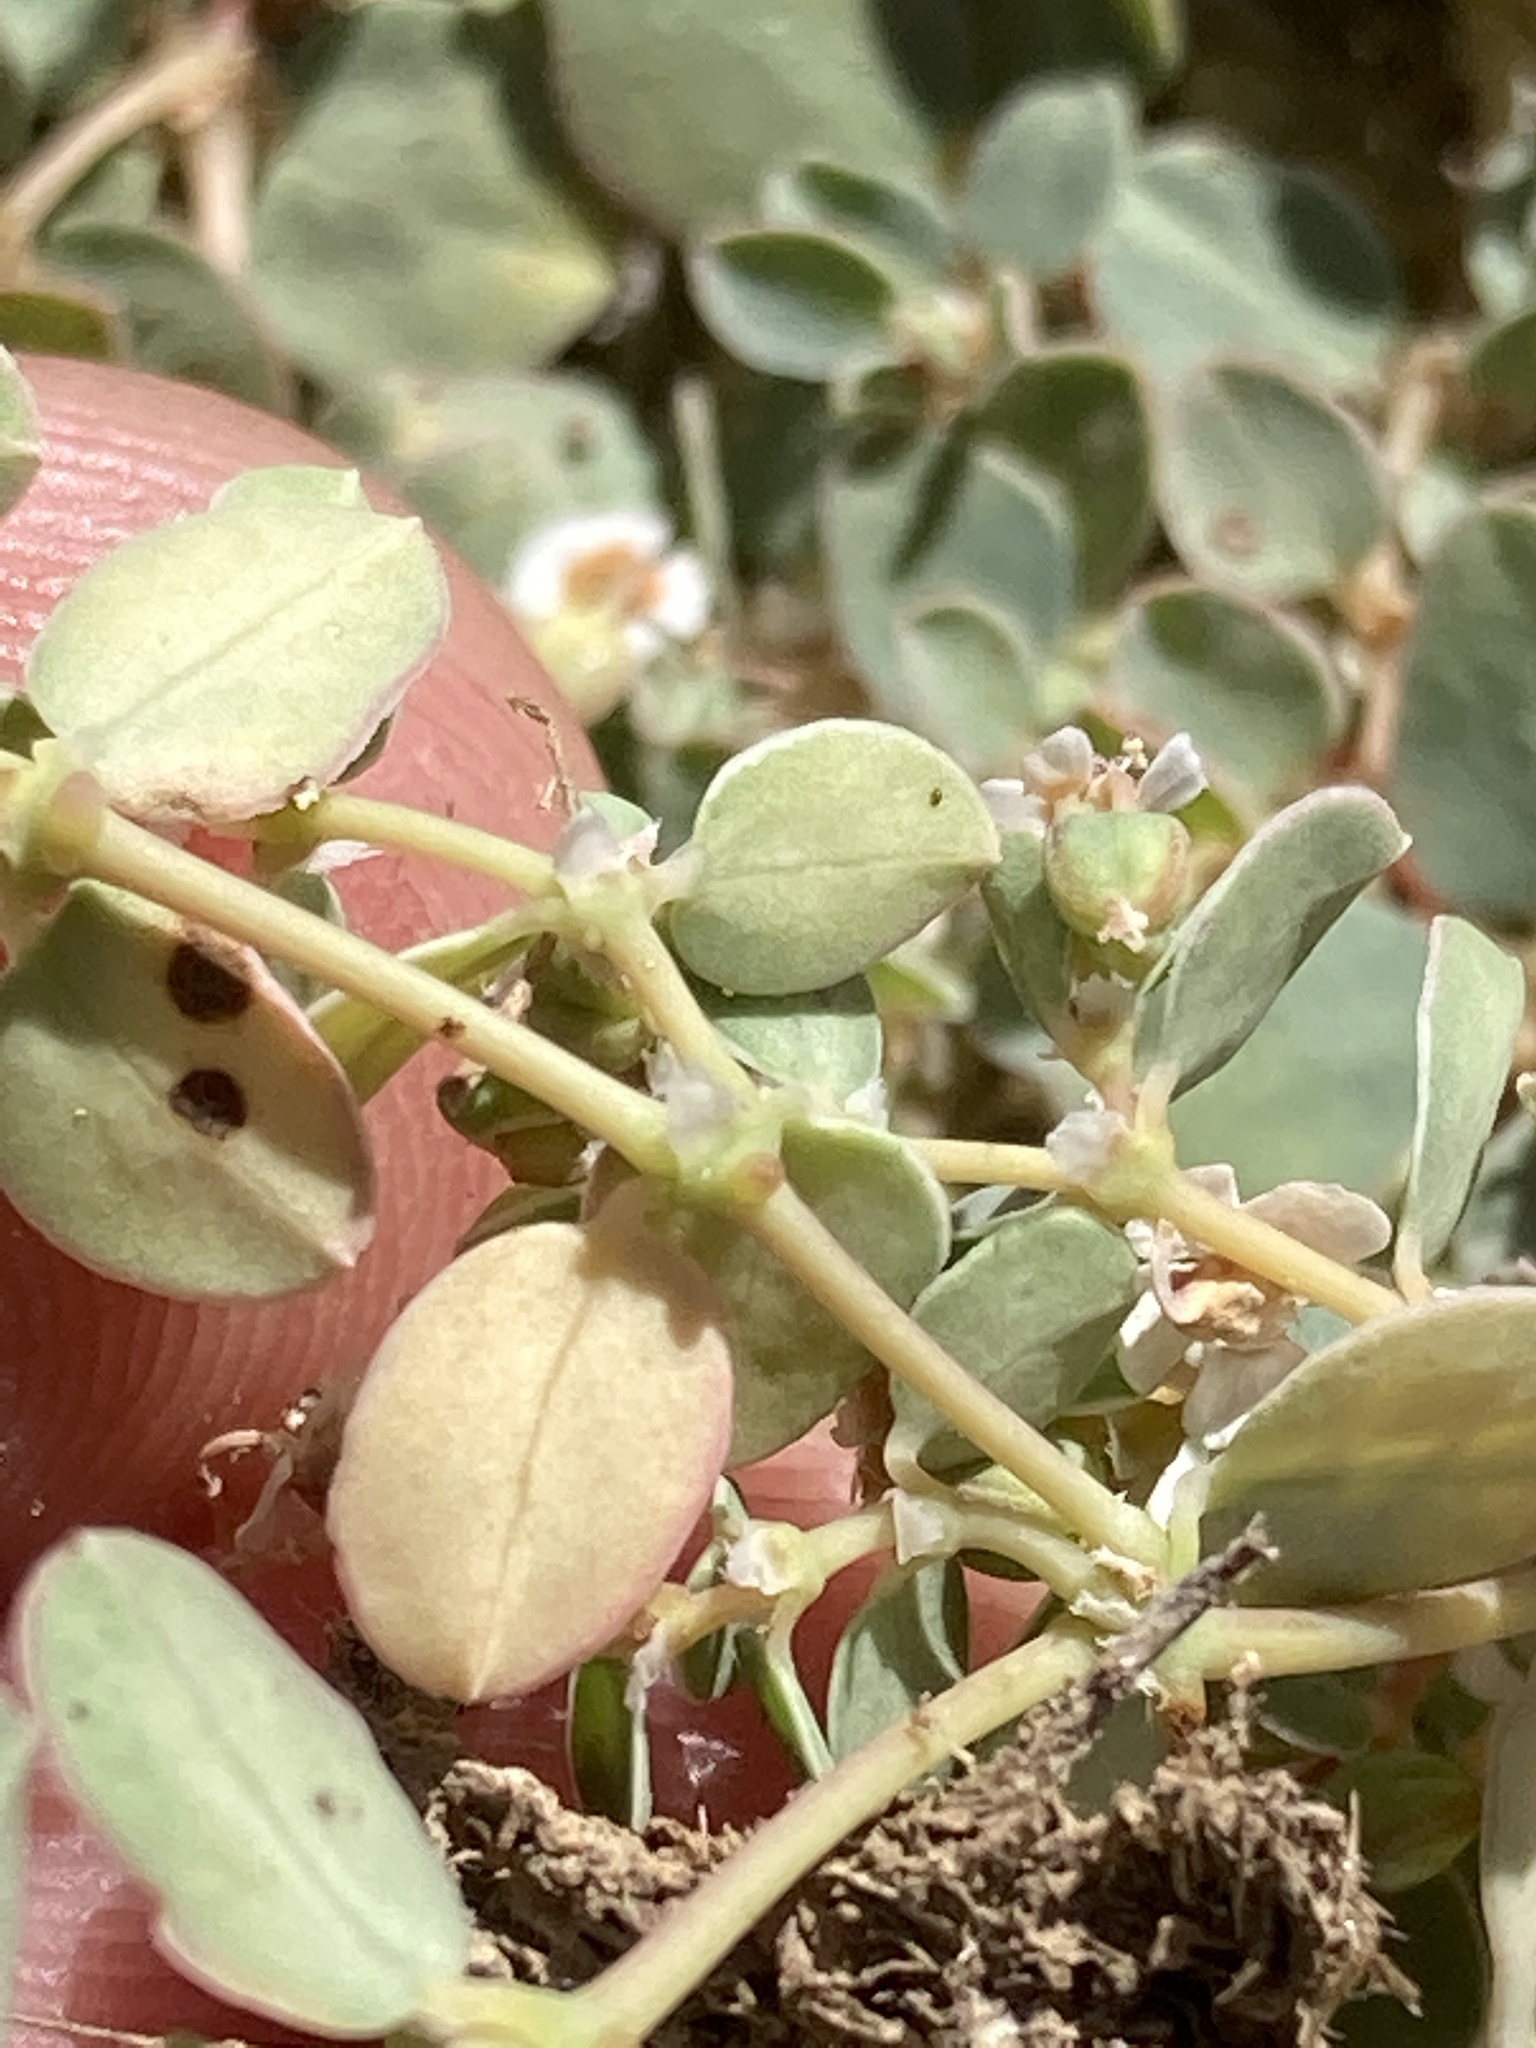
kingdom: Plantae
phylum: Tracheophyta
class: Magnoliopsida
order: Malpighiales
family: Euphorbiaceae
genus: Euphorbia
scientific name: Euphorbia albomarginata
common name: Whitemargin sandmat
